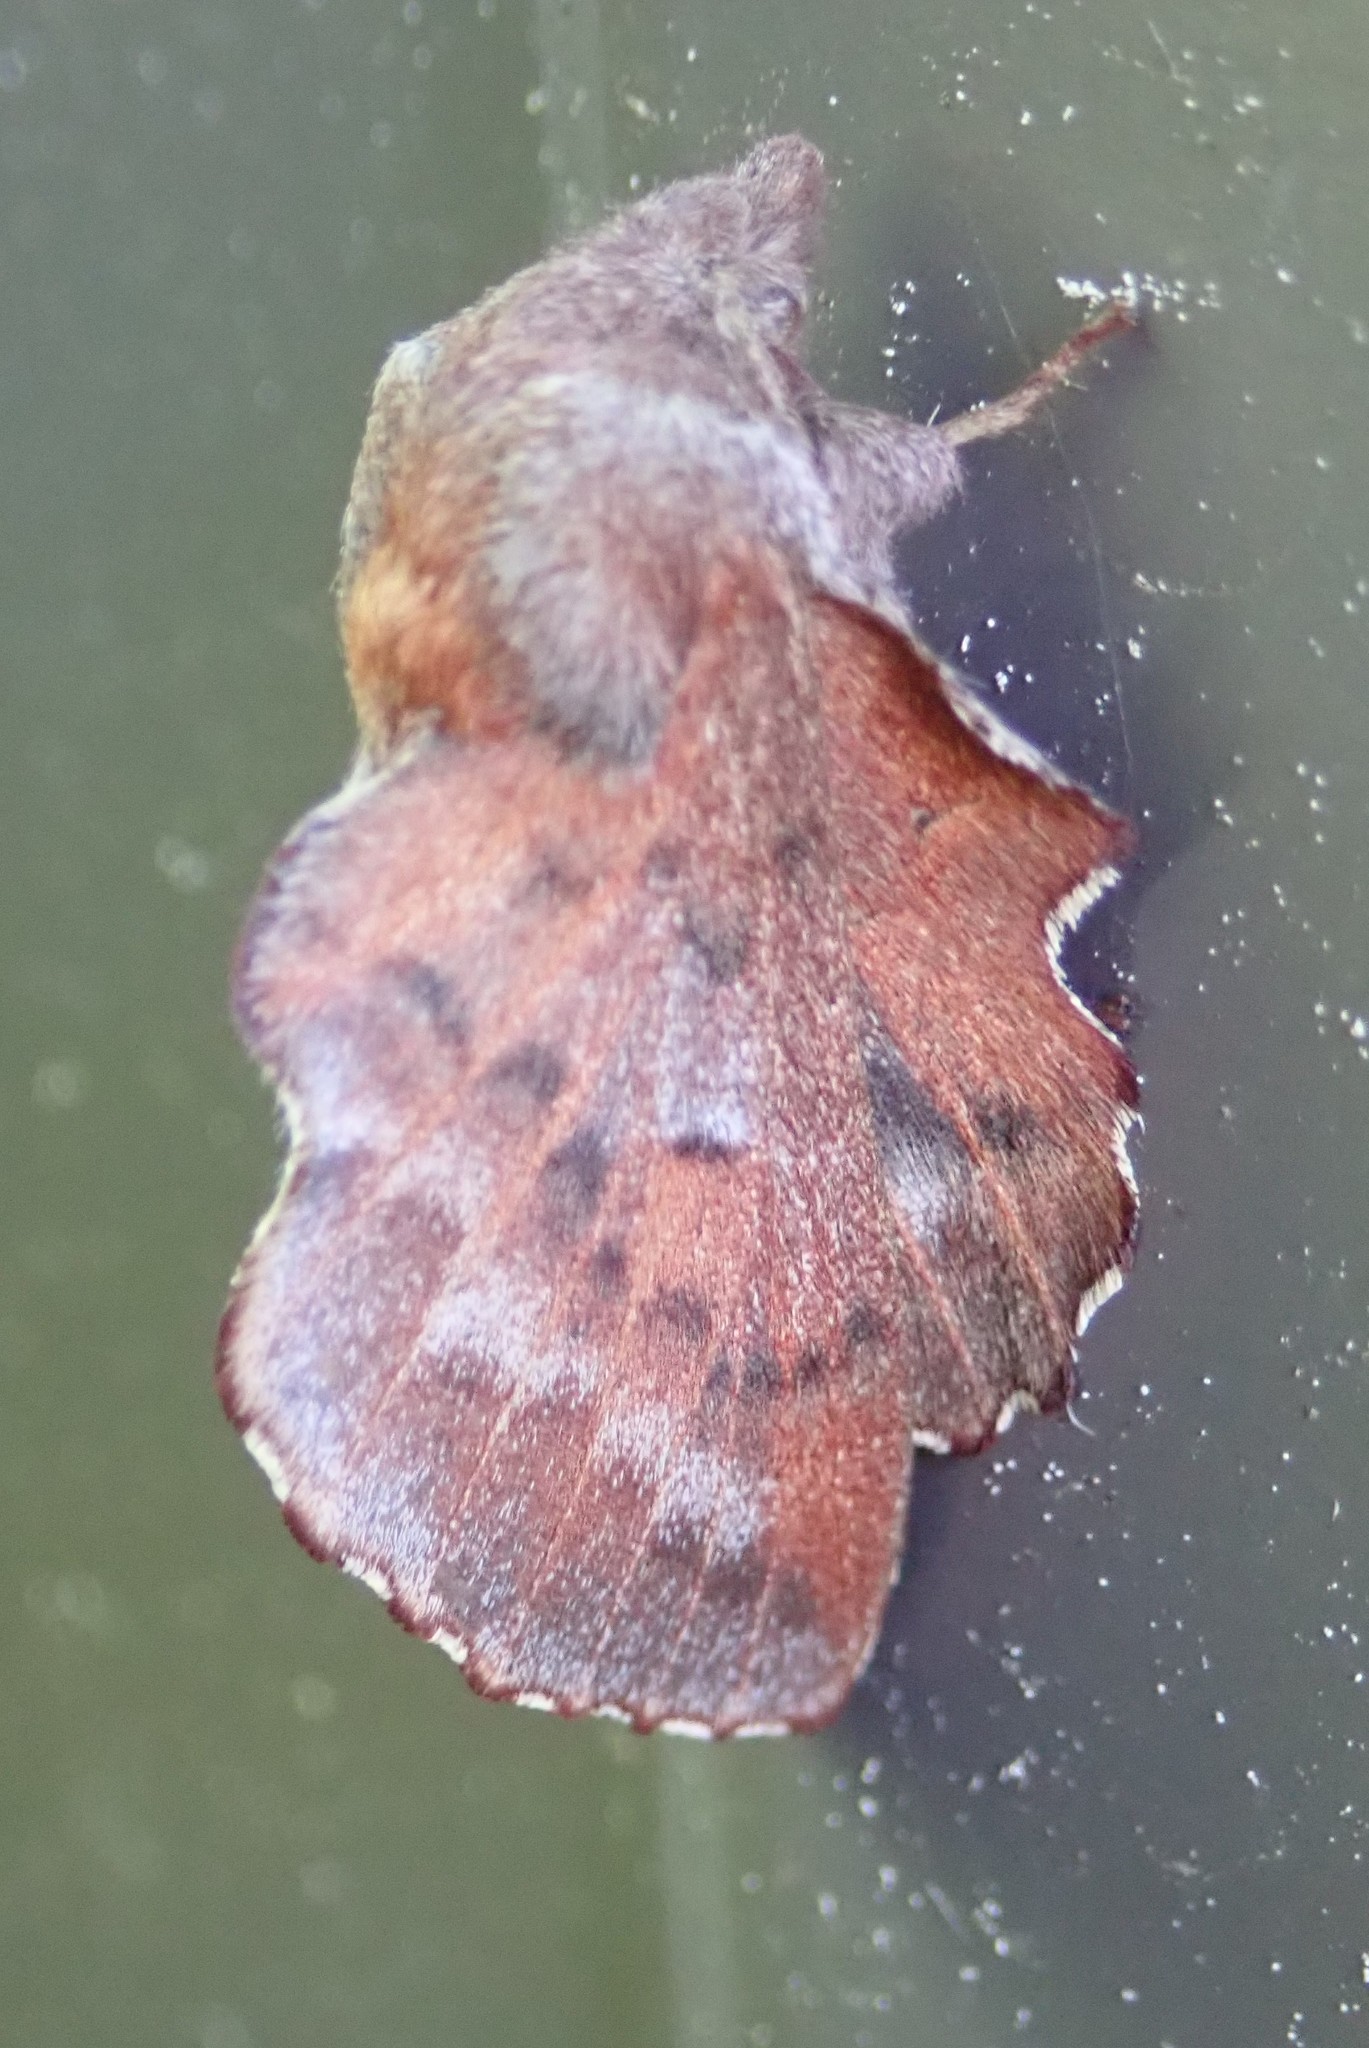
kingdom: Animalia
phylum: Arthropoda
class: Insecta
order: Lepidoptera
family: Lasiocampidae
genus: Phyllodesma
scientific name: Phyllodesma americana
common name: American lappet moth
